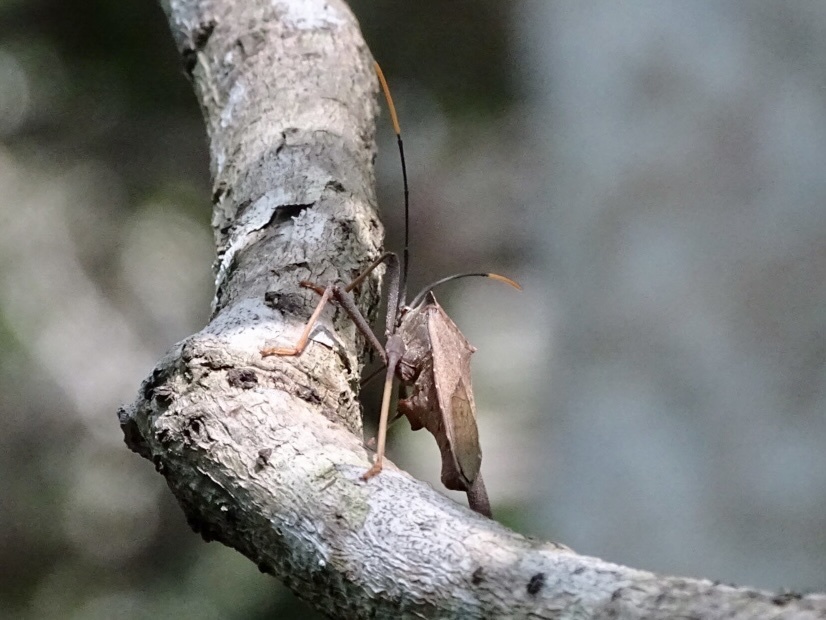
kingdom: Animalia
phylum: Arthropoda
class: Insecta
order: Hemiptera
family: Coreidae
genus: Mictis
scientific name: Mictis serina
